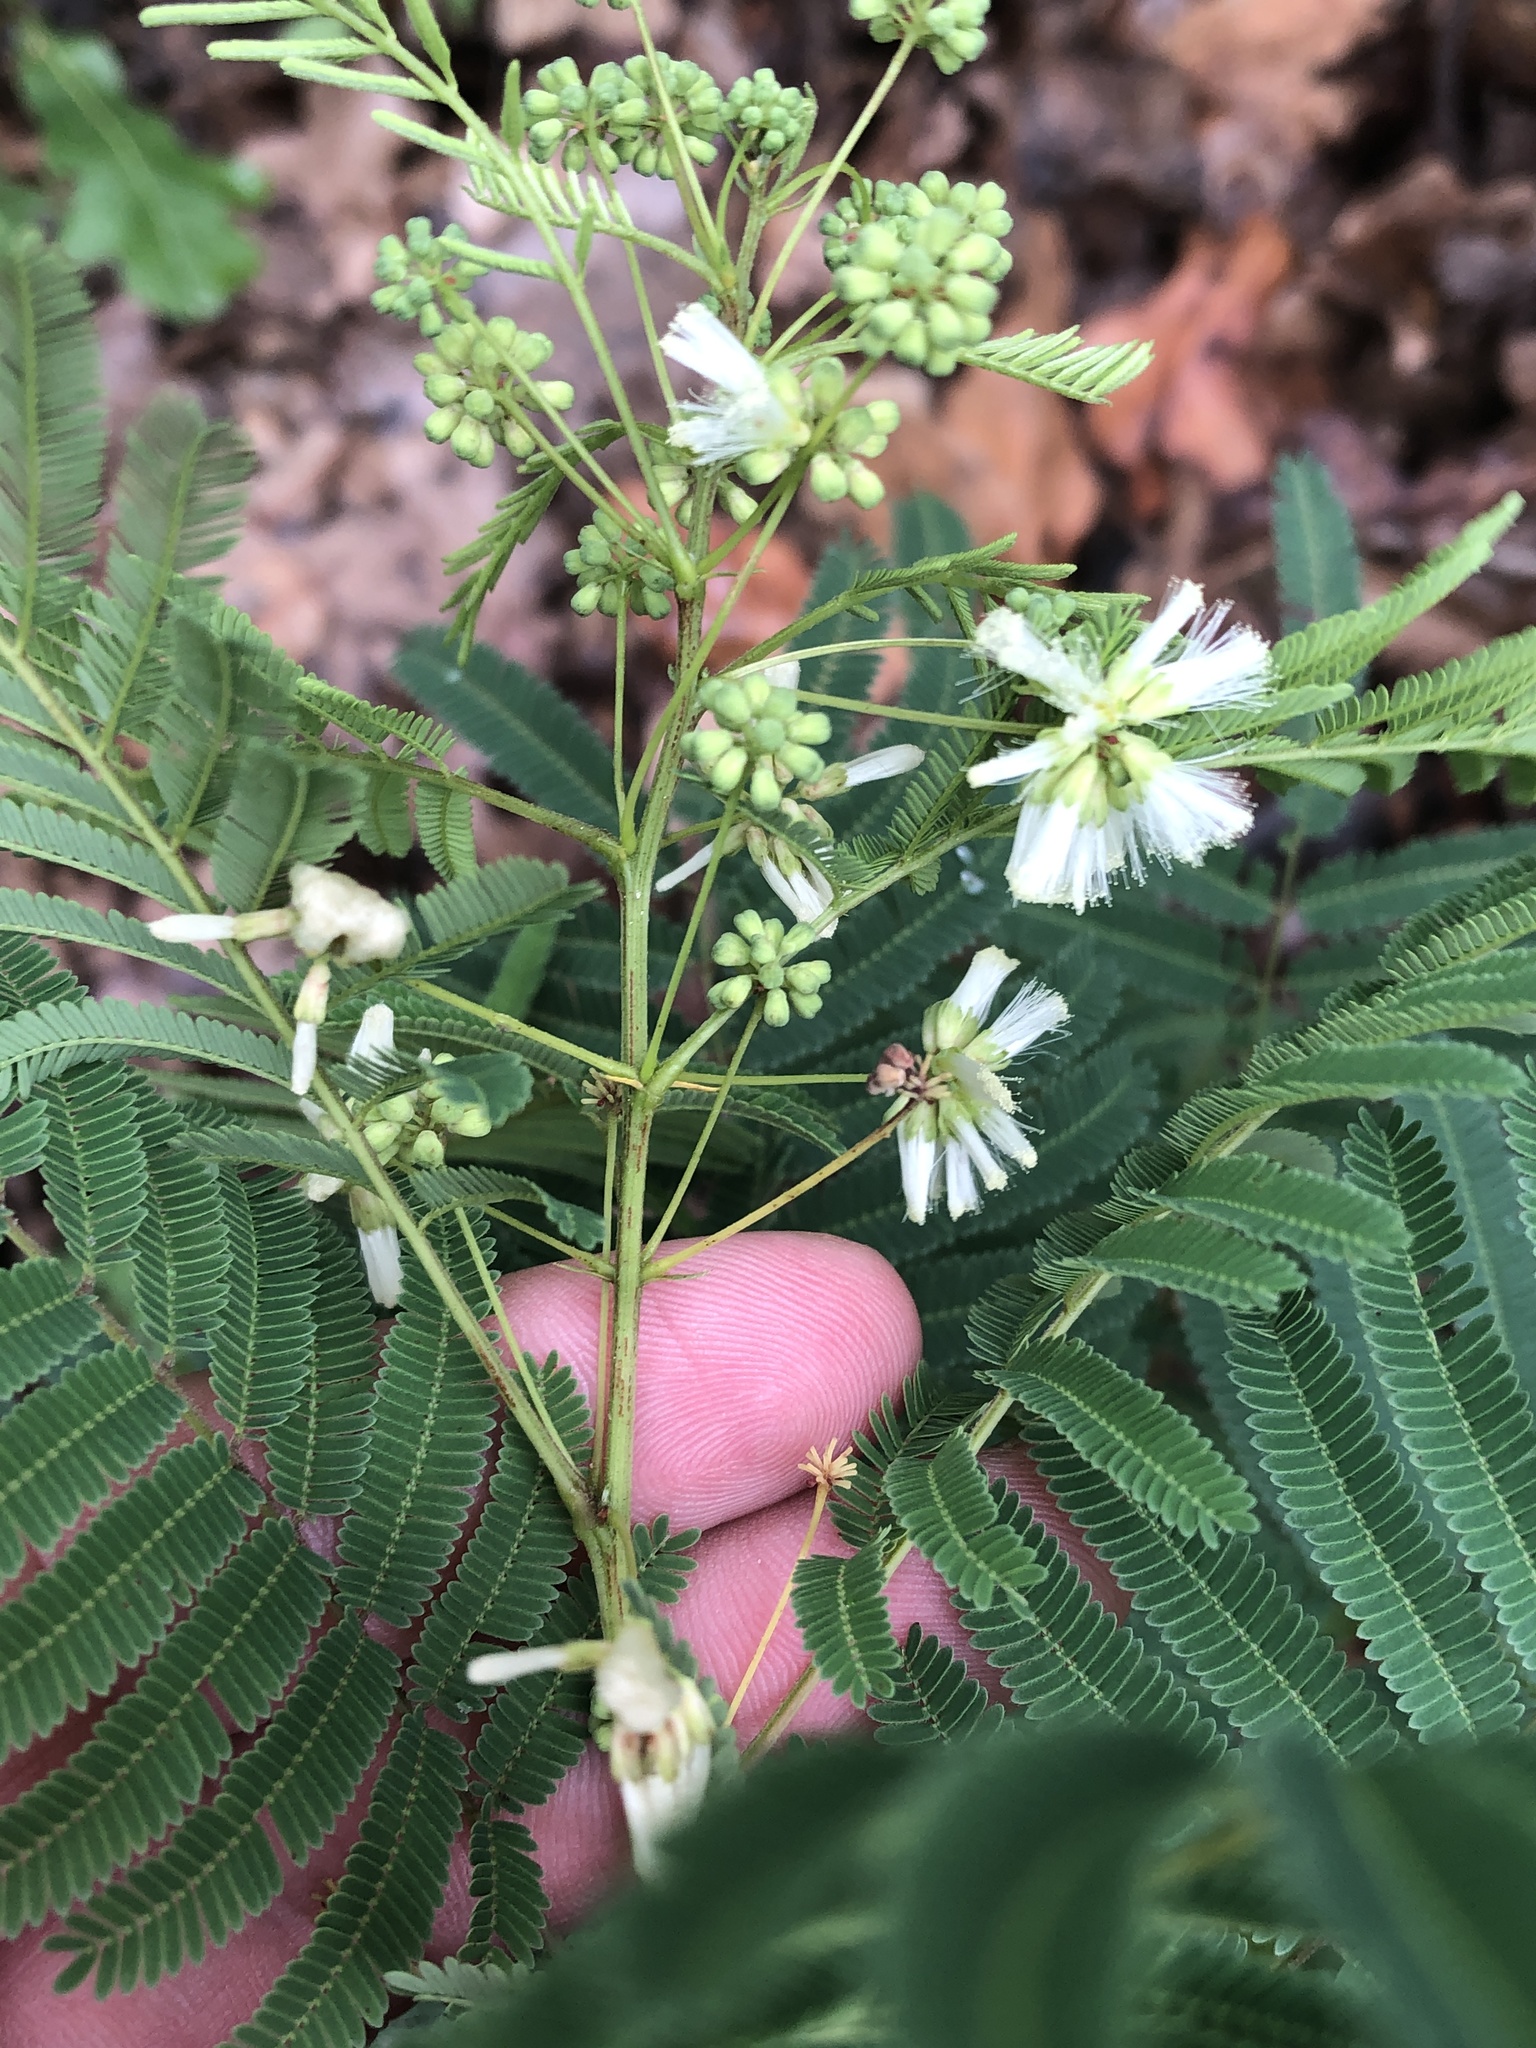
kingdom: Plantae
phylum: Tracheophyta
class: Magnoliopsida
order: Fabales
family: Fabaceae
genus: Acaciella
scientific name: Acaciella angustissima
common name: Prairie acacia
